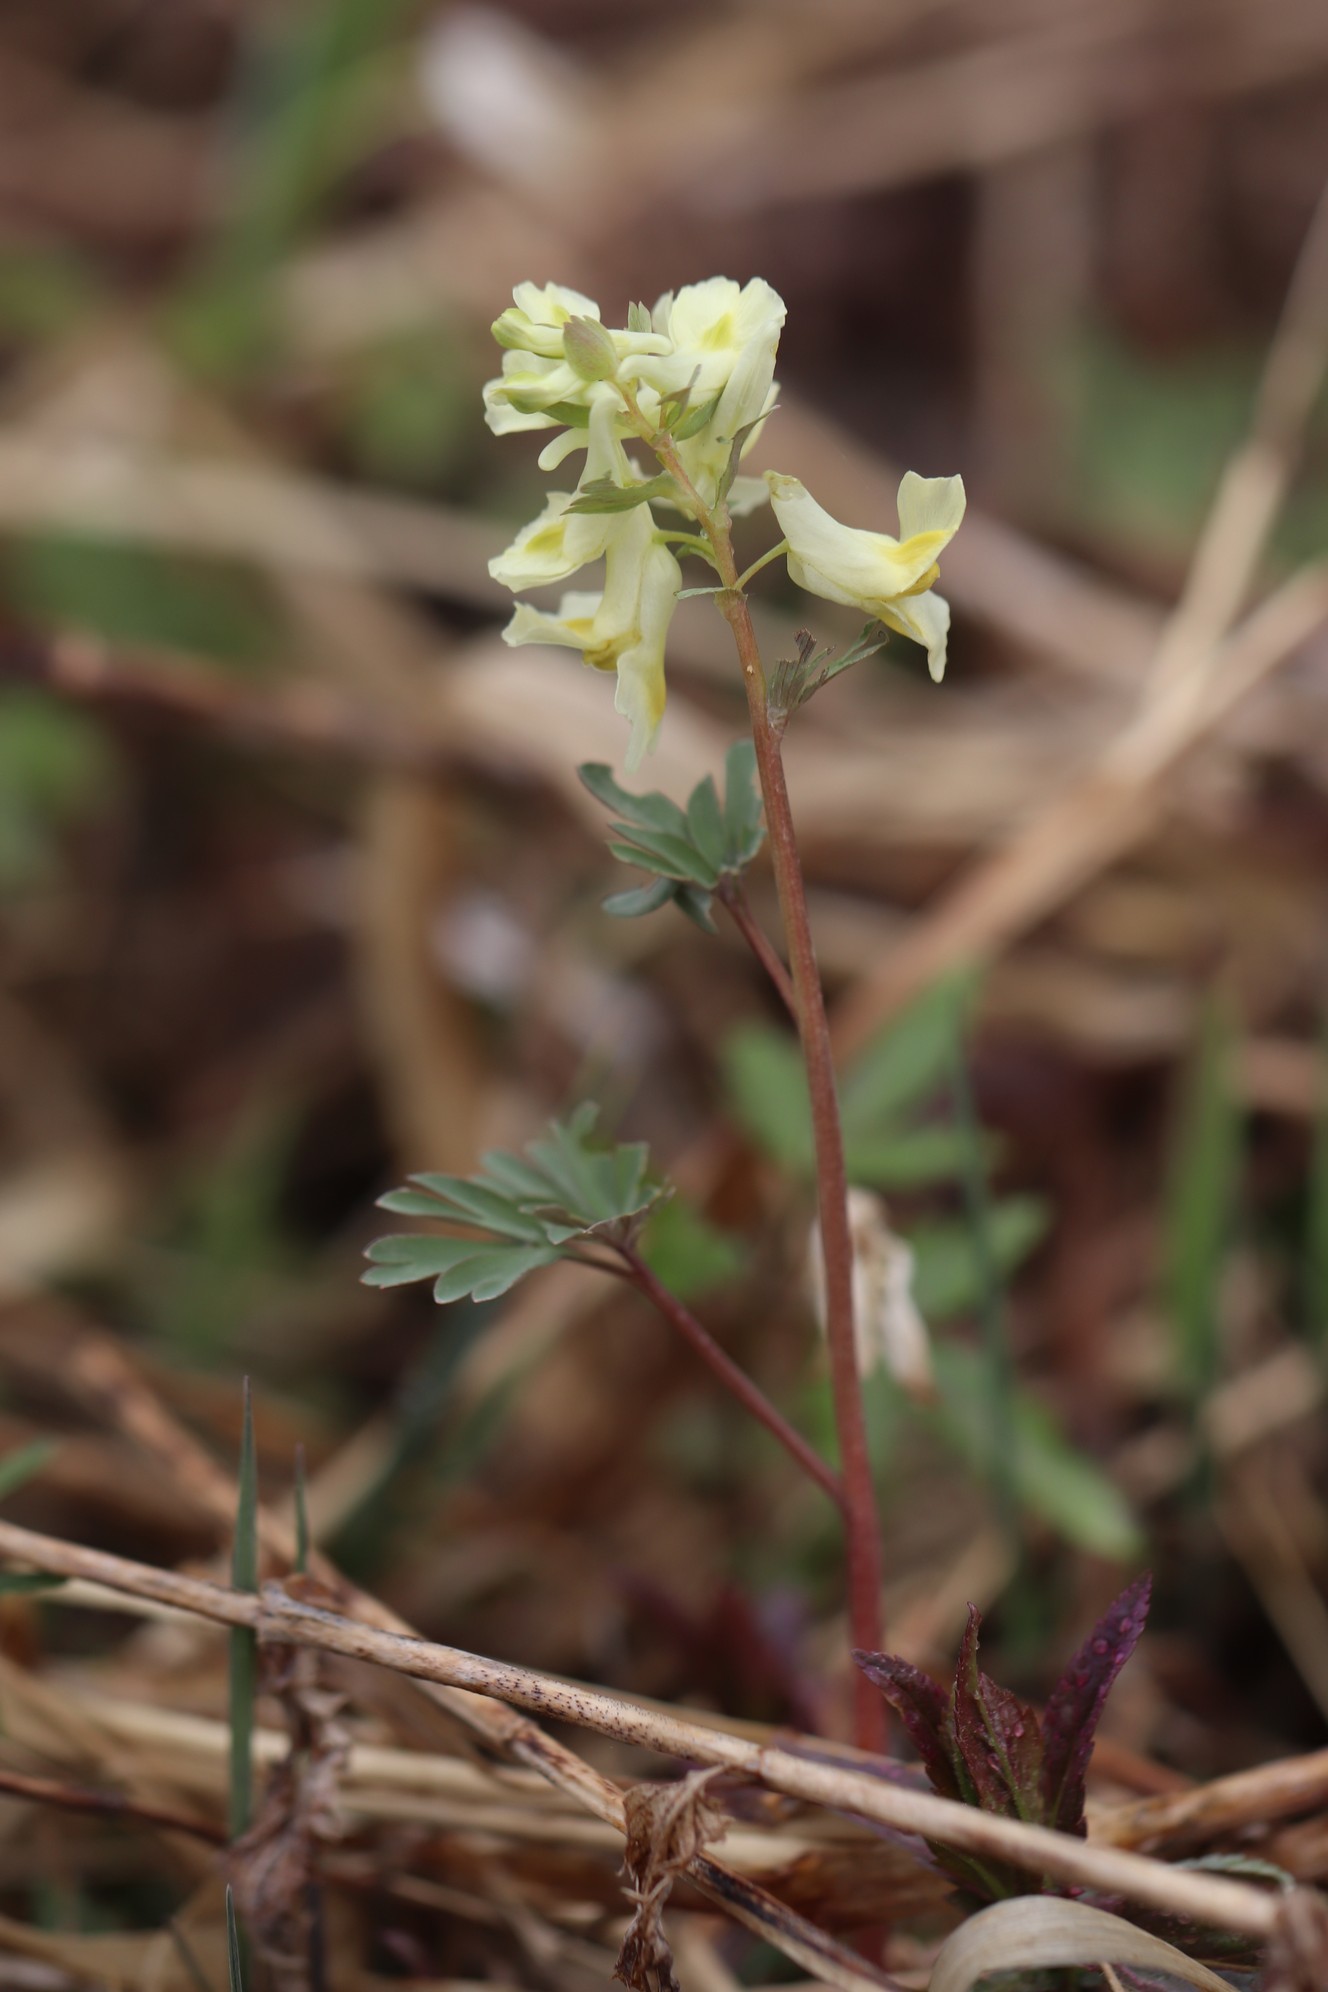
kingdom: Plantae
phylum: Tracheophyta
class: Magnoliopsida
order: Ranunculales
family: Papaveraceae
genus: Corydalis
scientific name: Corydalis bracteata
